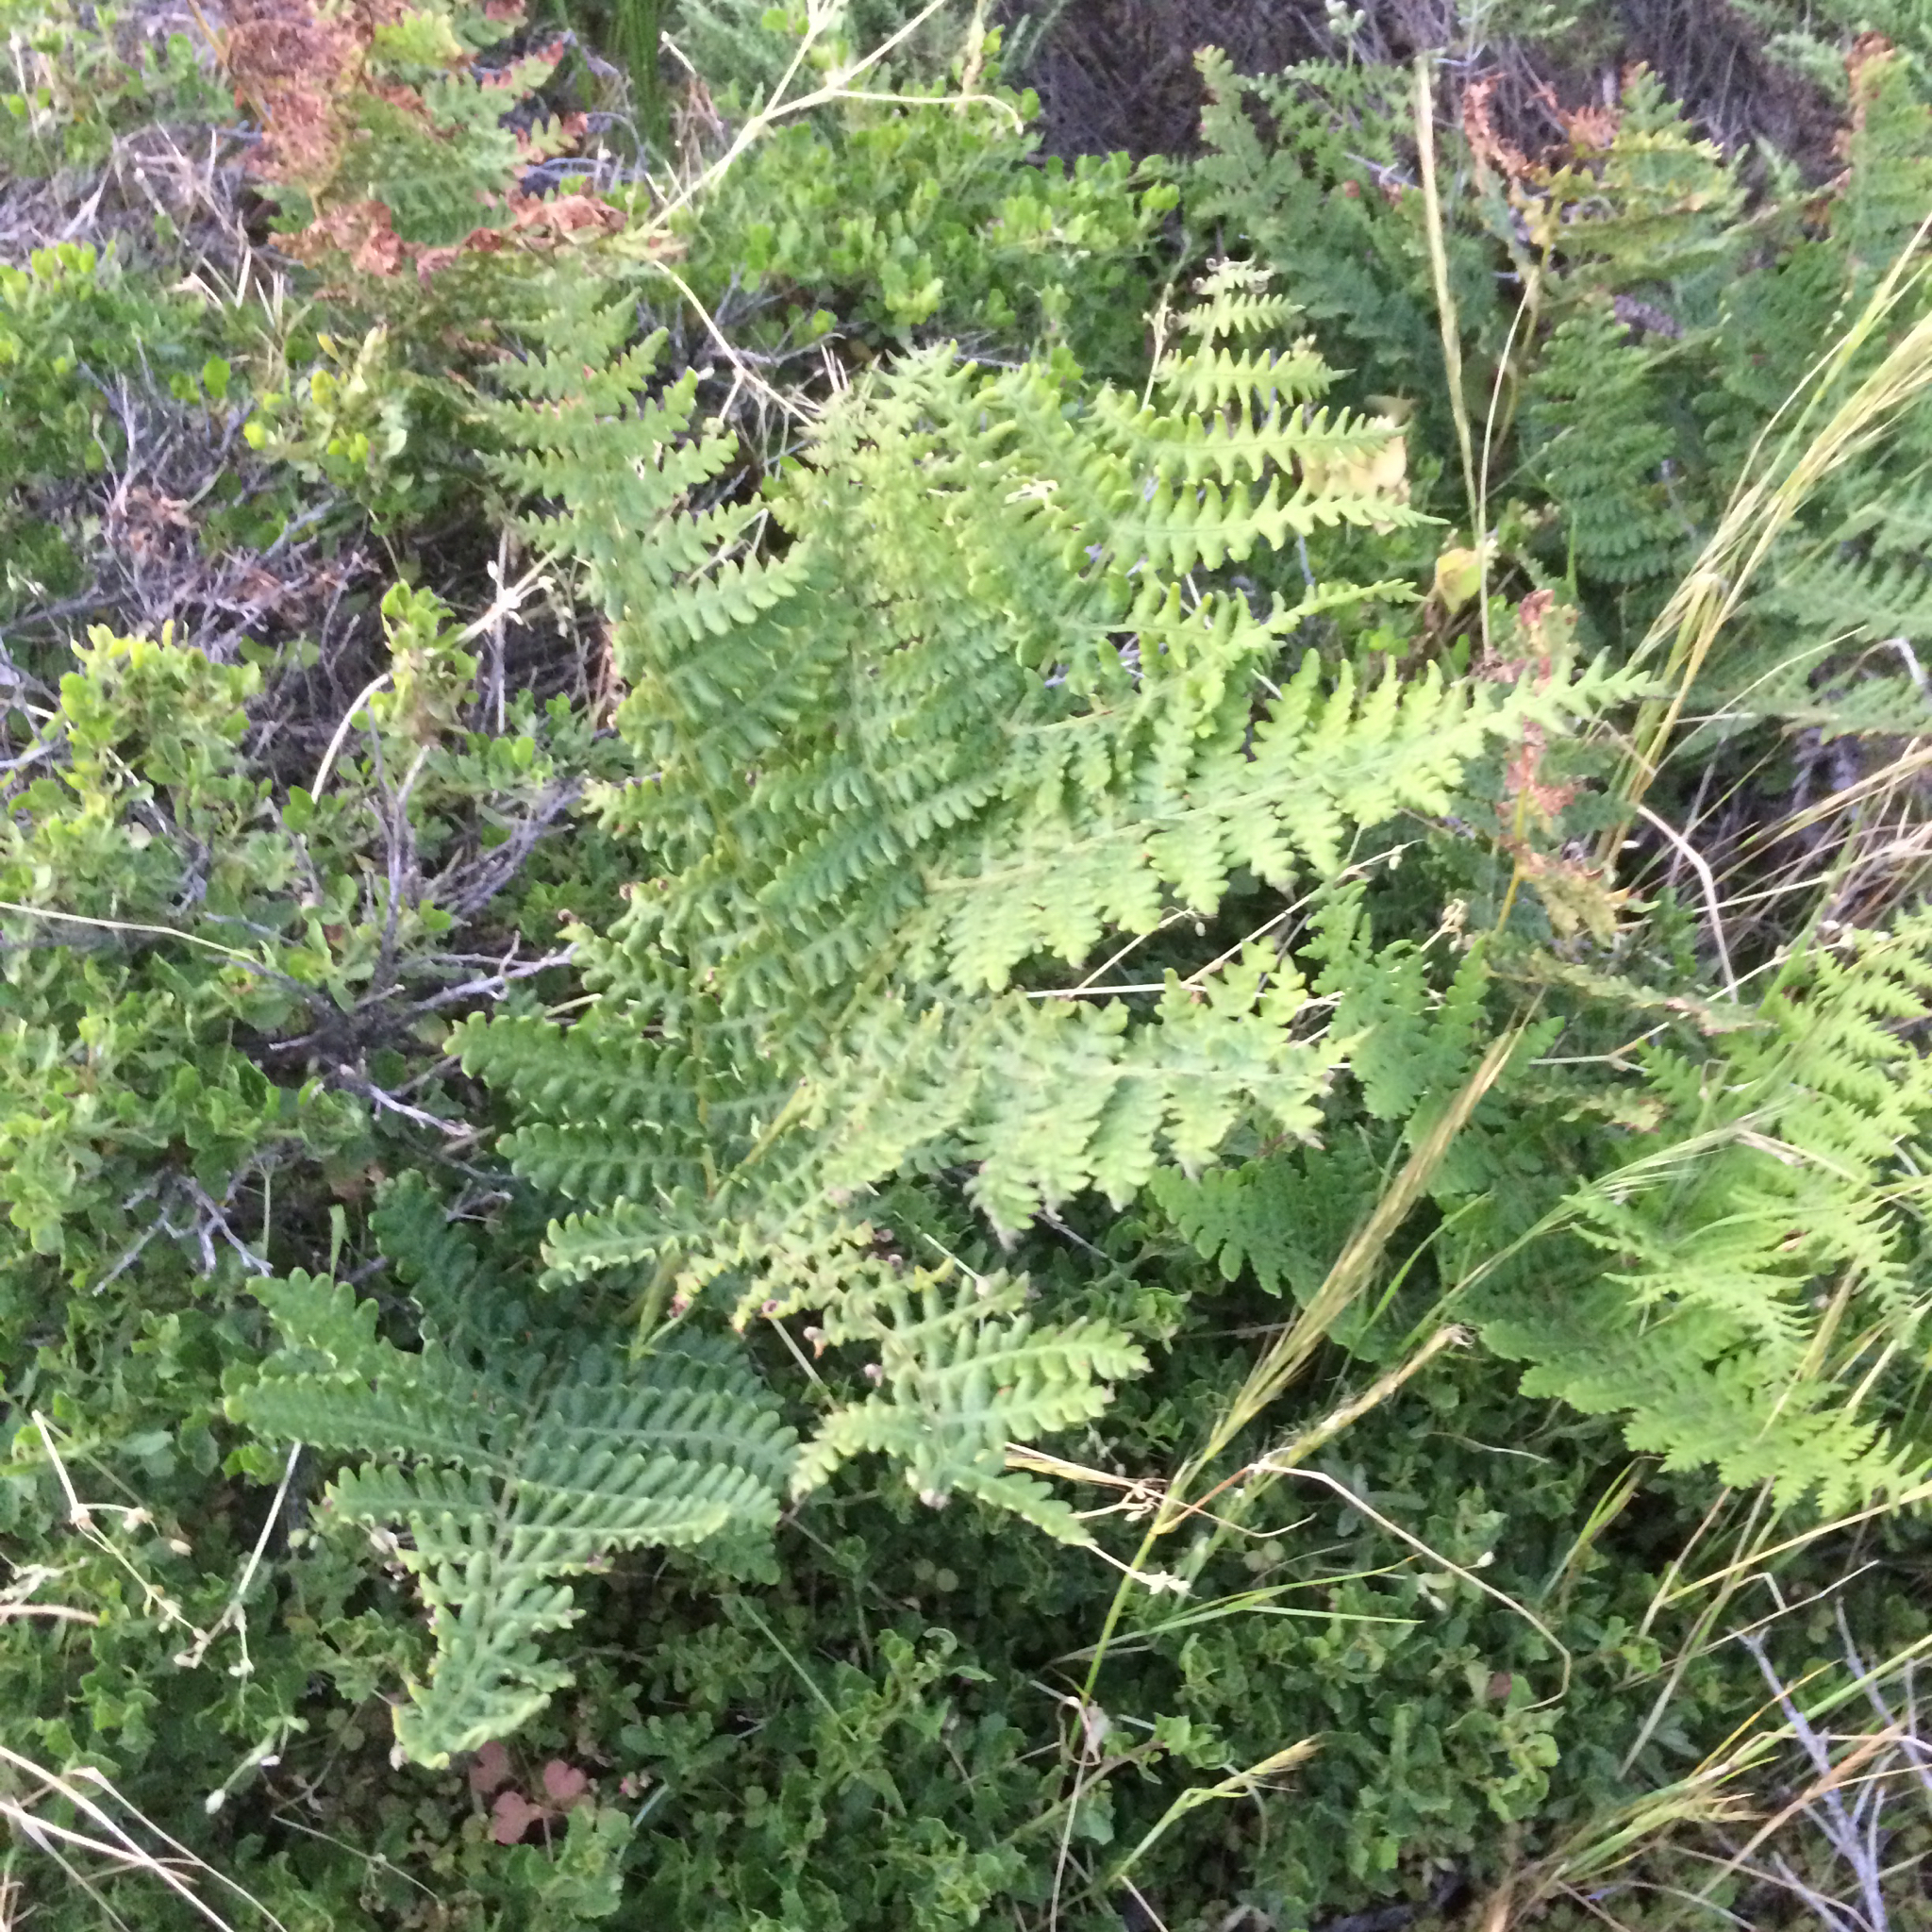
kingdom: Plantae
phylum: Tracheophyta
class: Polypodiopsida
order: Polypodiales
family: Dennstaedtiaceae
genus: Pteridium
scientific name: Pteridium aquilinum
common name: Bracken
